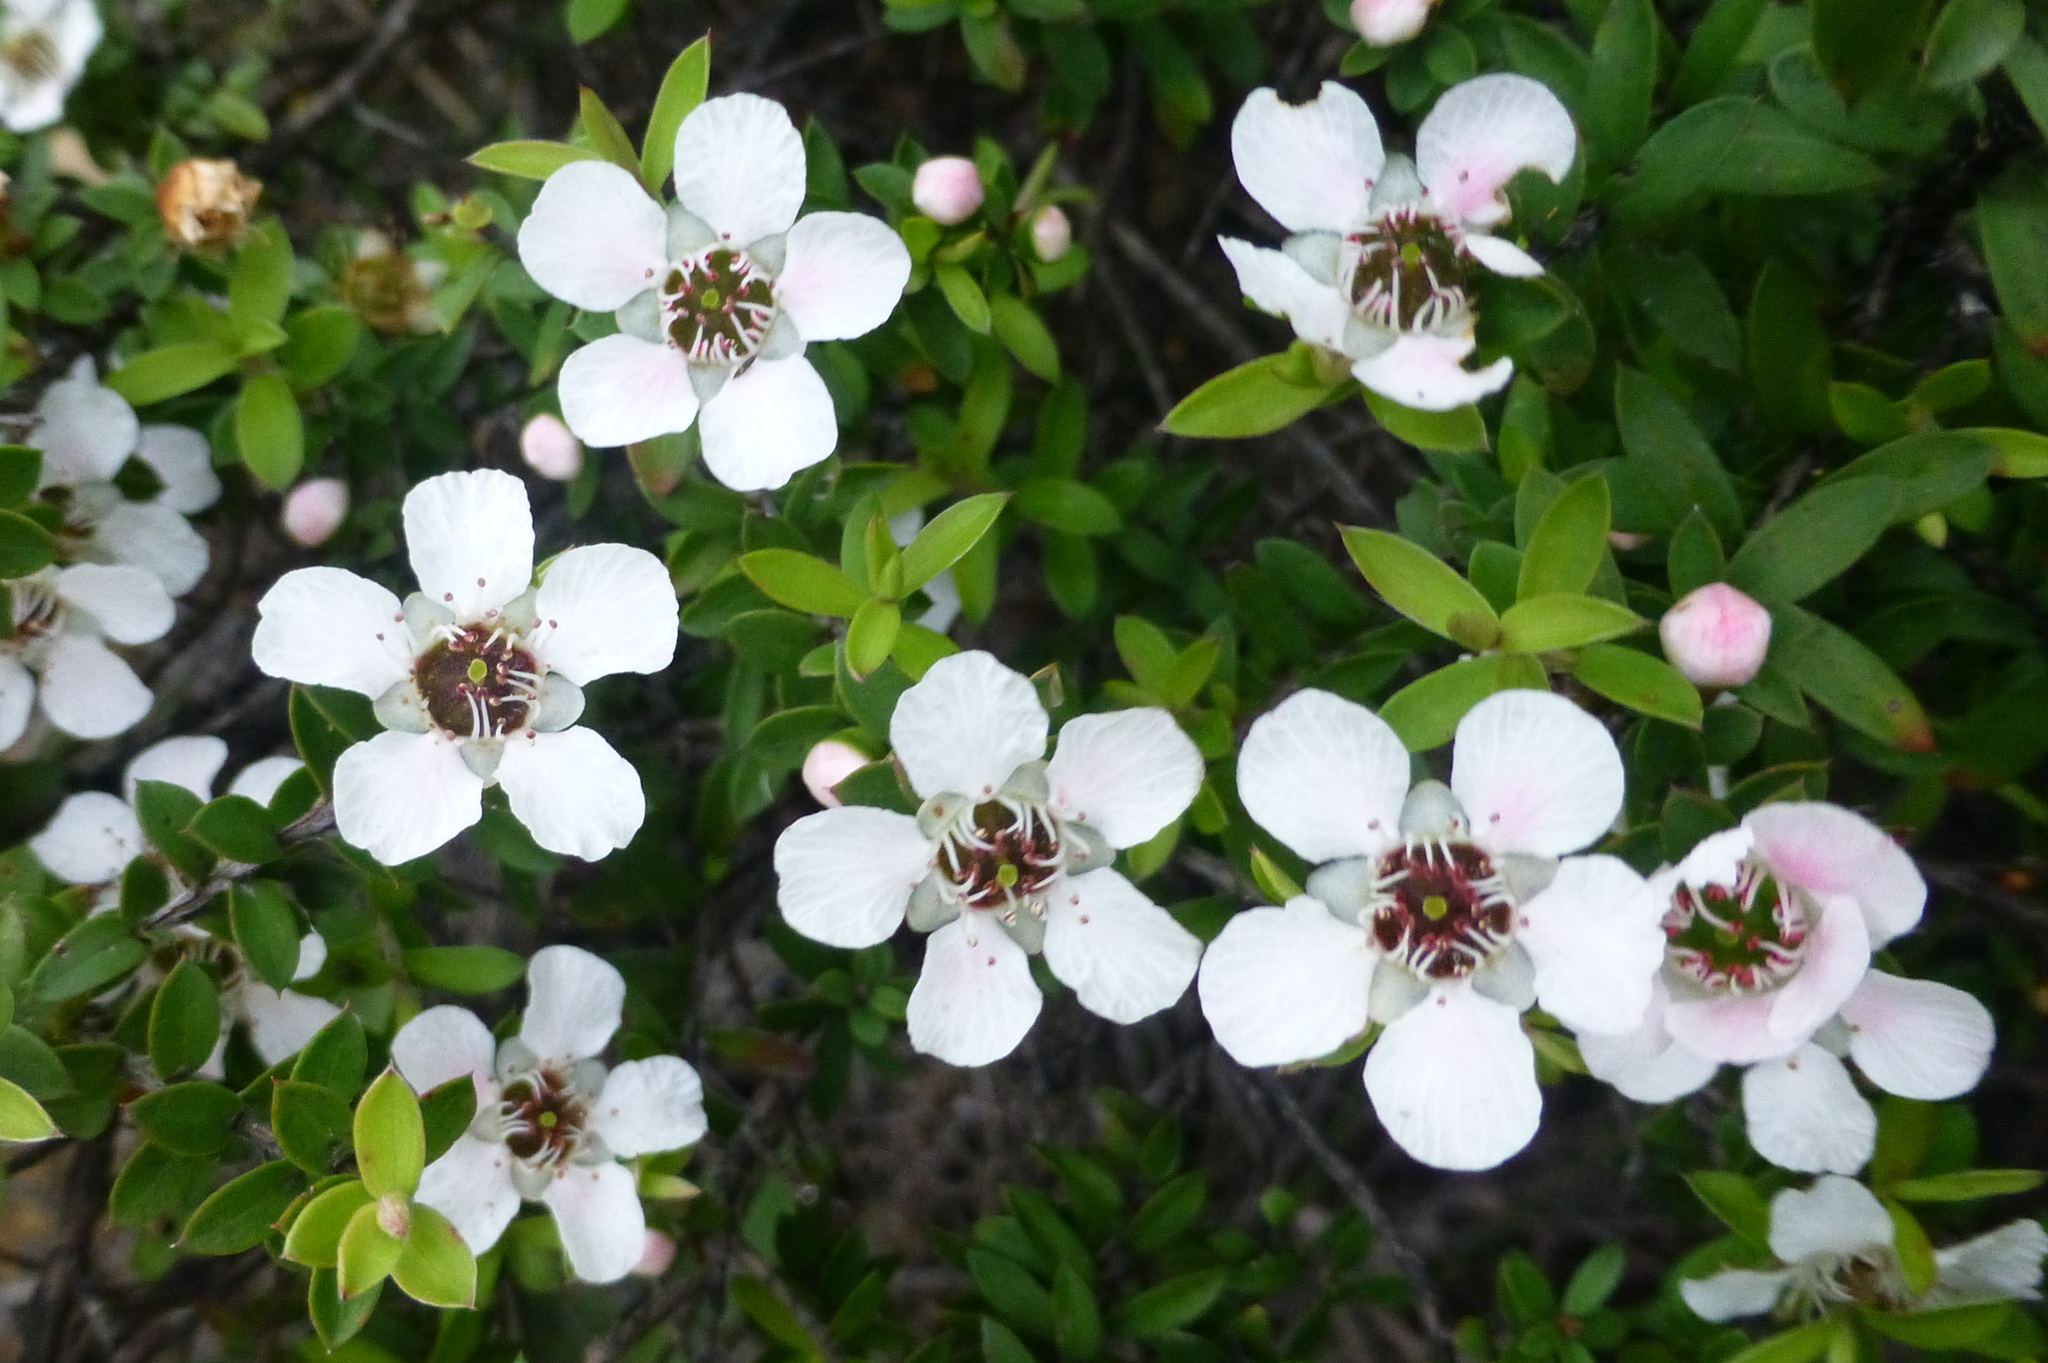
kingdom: Plantae
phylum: Tracheophyta
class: Magnoliopsida
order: Myrtales
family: Myrtaceae
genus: Leptospermum
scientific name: Leptospermum scoparium
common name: Broom tea-tree
